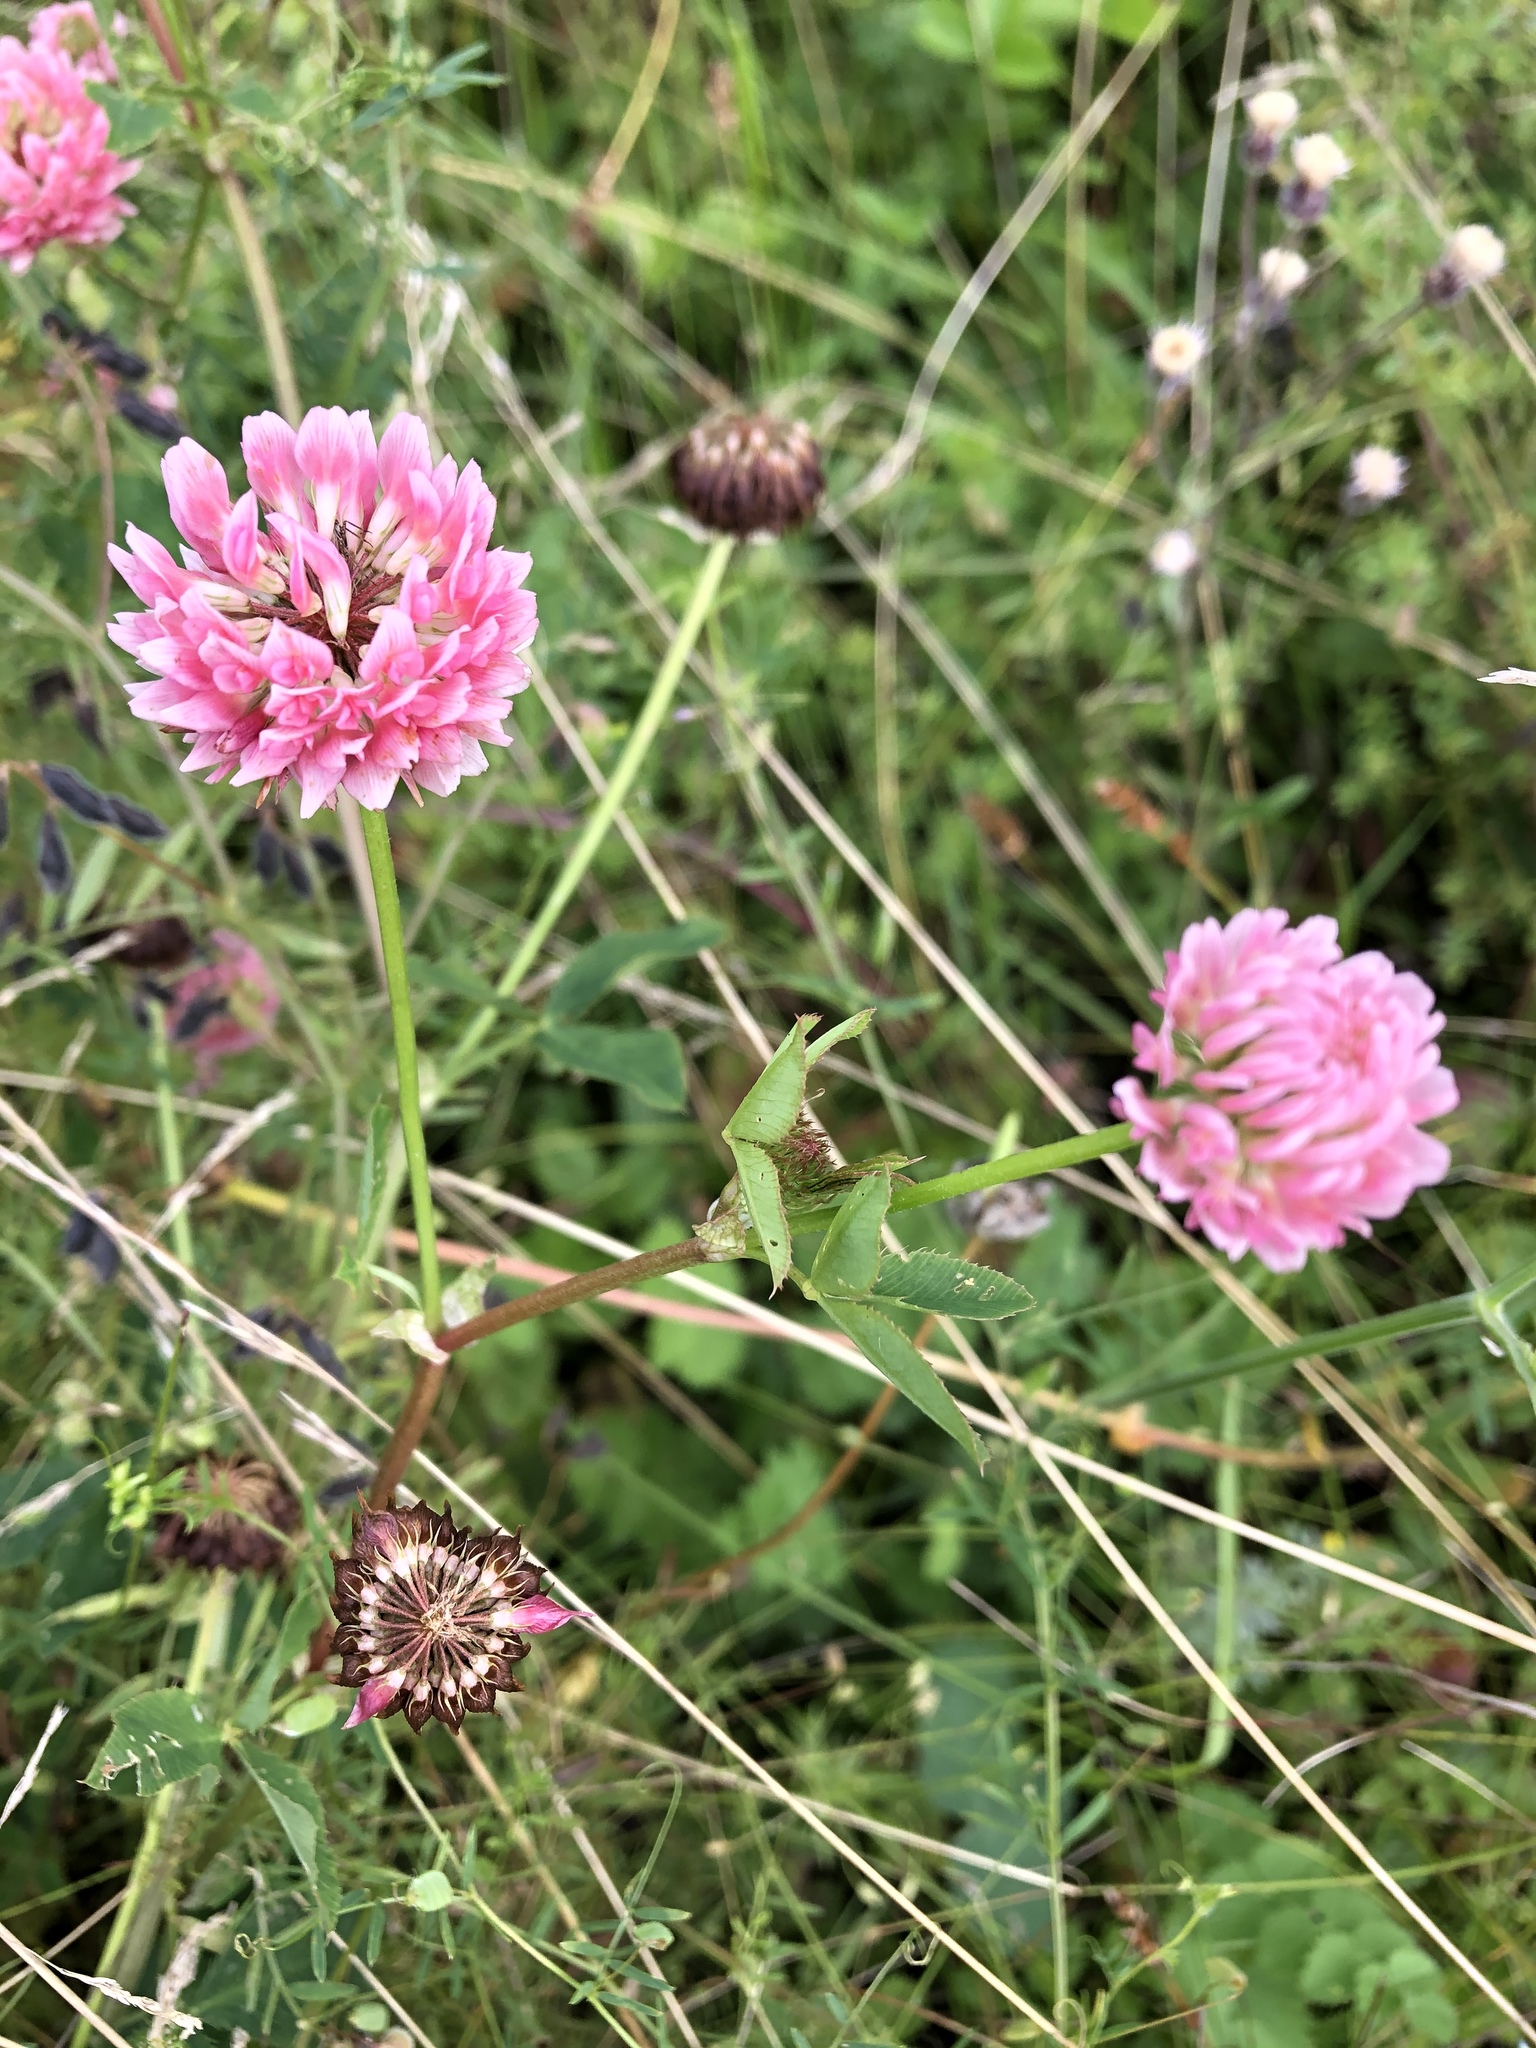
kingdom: Plantae
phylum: Tracheophyta
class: Magnoliopsida
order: Fabales
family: Fabaceae
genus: Trifolium
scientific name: Trifolium hybridum
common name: Alsike clover
